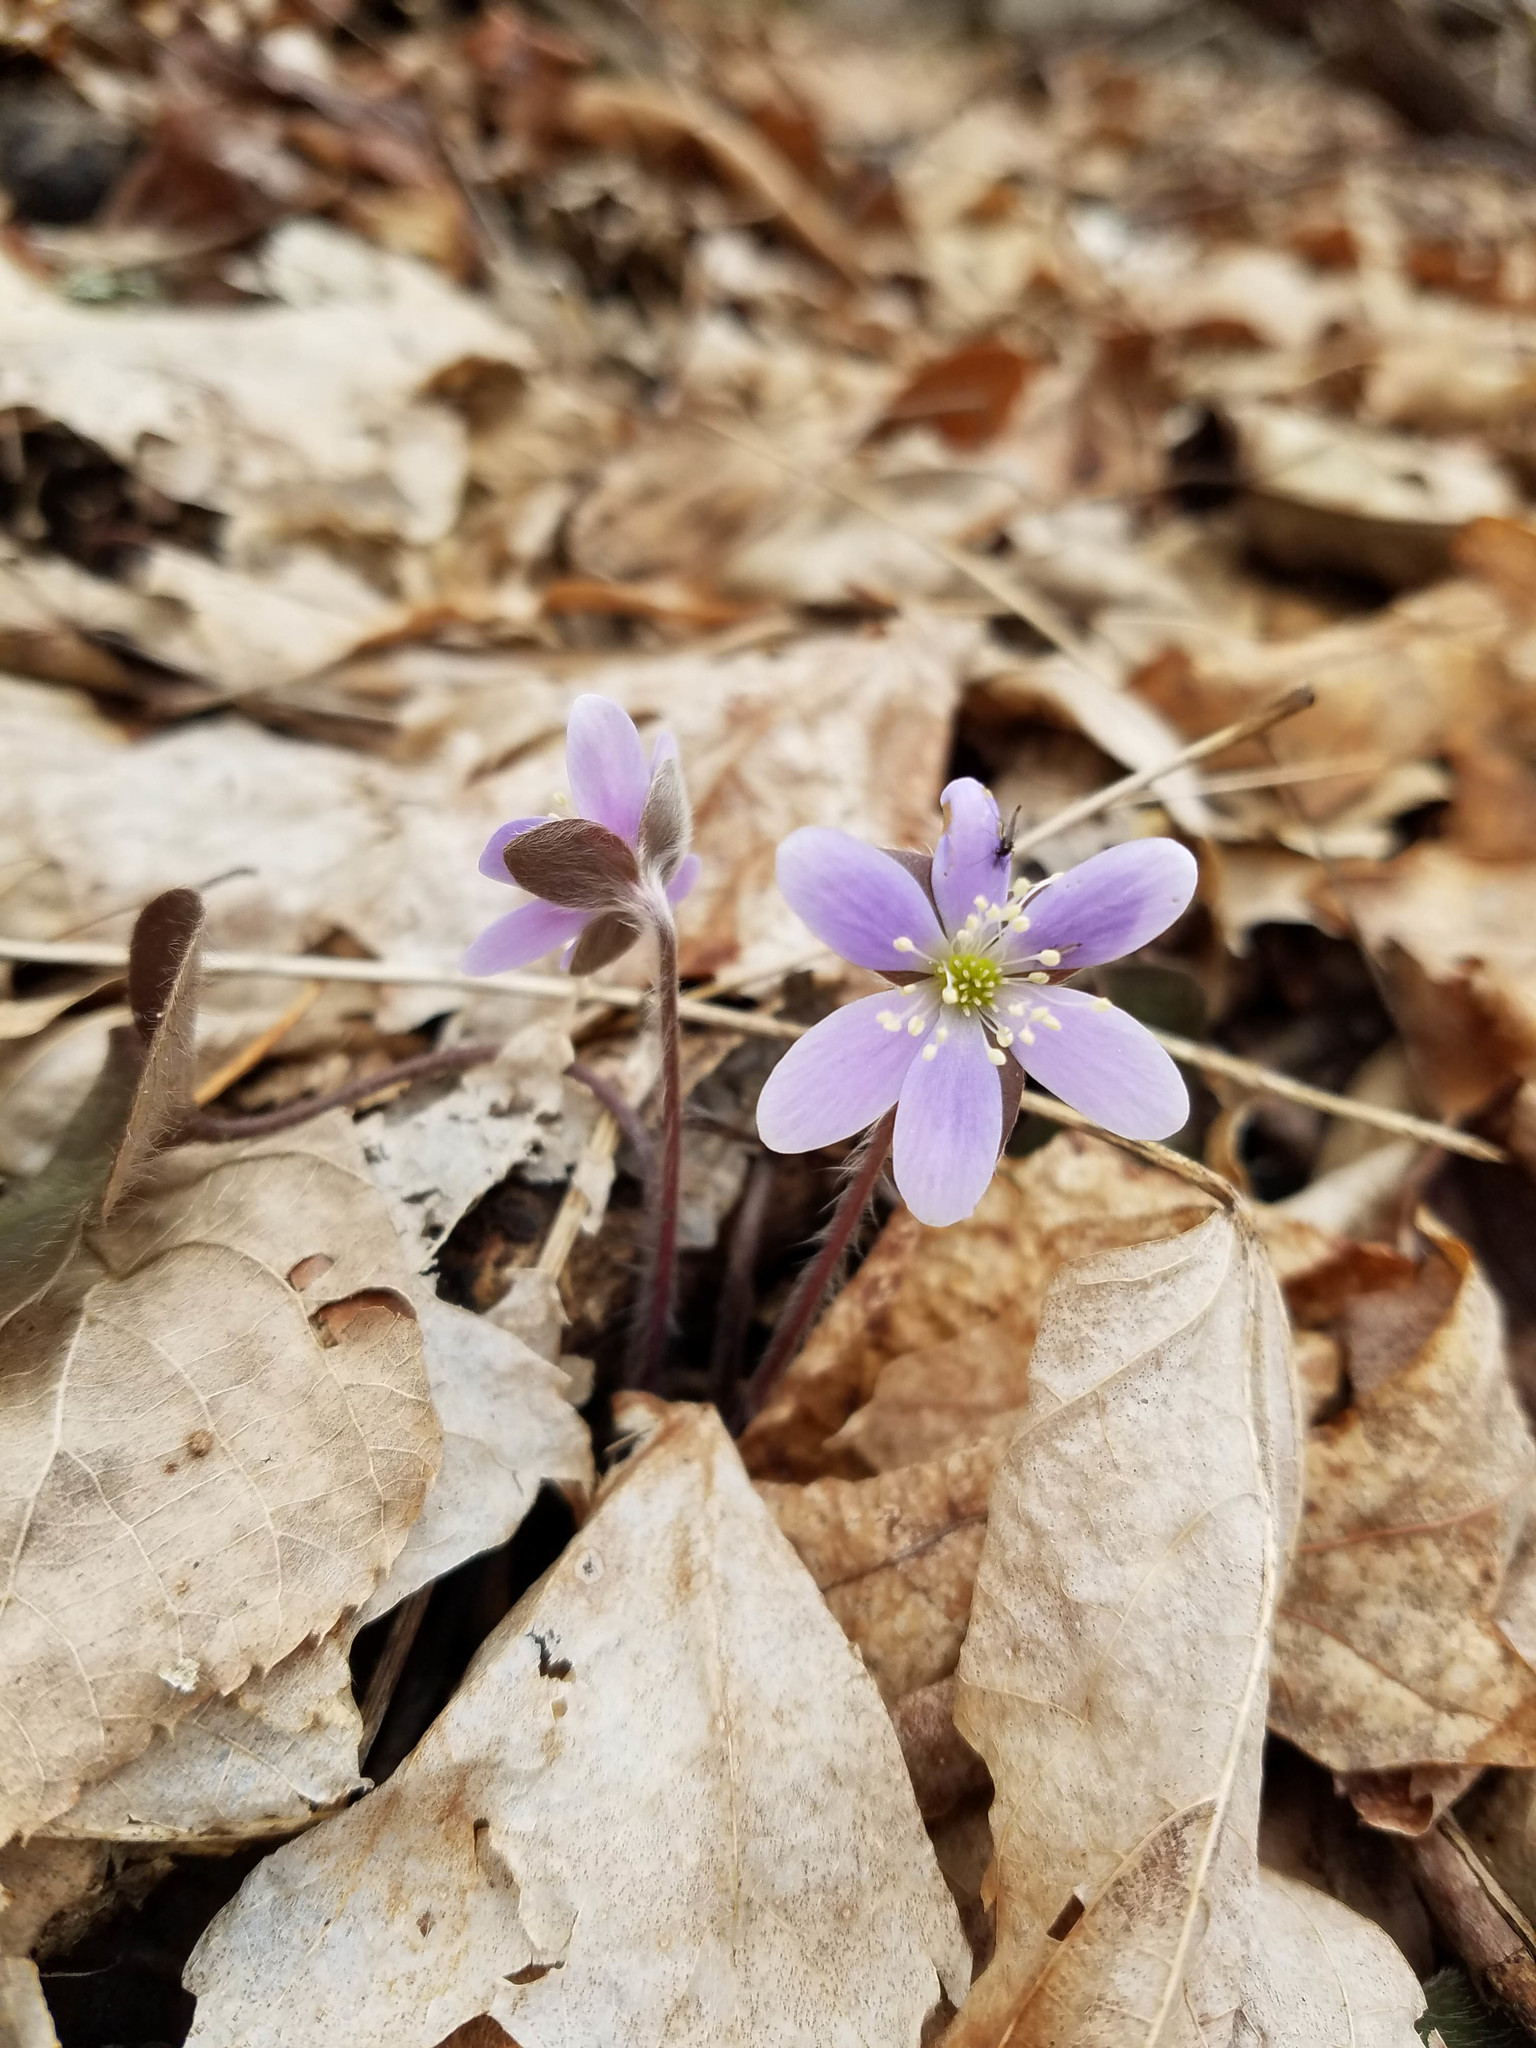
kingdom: Plantae
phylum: Tracheophyta
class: Magnoliopsida
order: Ranunculales
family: Ranunculaceae
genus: Hepatica
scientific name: Hepatica americana
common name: American hepatica
